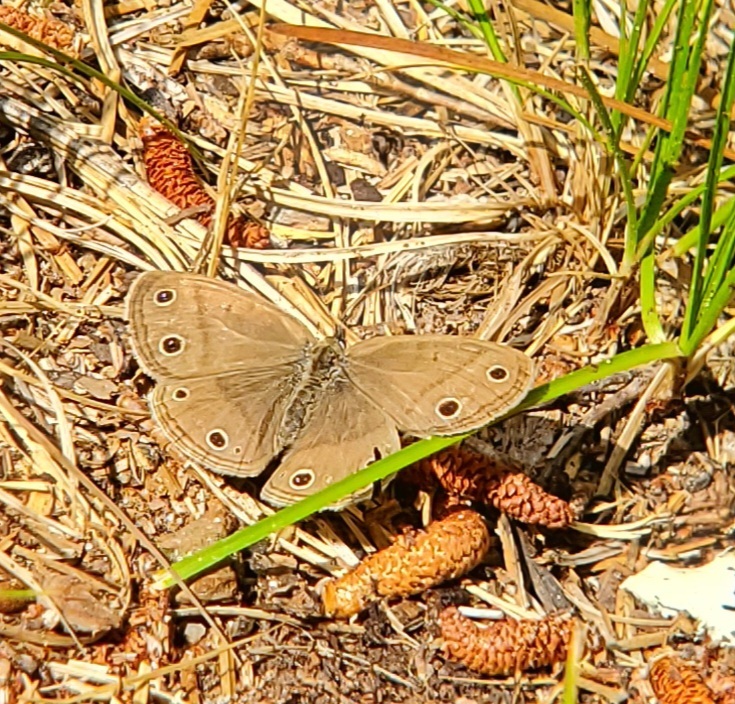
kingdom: Animalia
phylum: Arthropoda
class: Insecta
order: Lepidoptera
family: Nymphalidae
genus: Euptychia
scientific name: Euptychia cymela
